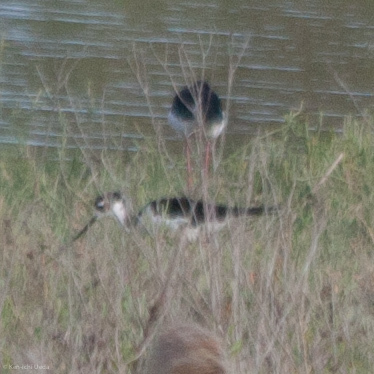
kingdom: Animalia
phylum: Chordata
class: Aves
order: Charadriiformes
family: Recurvirostridae
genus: Himantopus
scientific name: Himantopus mexicanus
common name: Black-necked stilt
